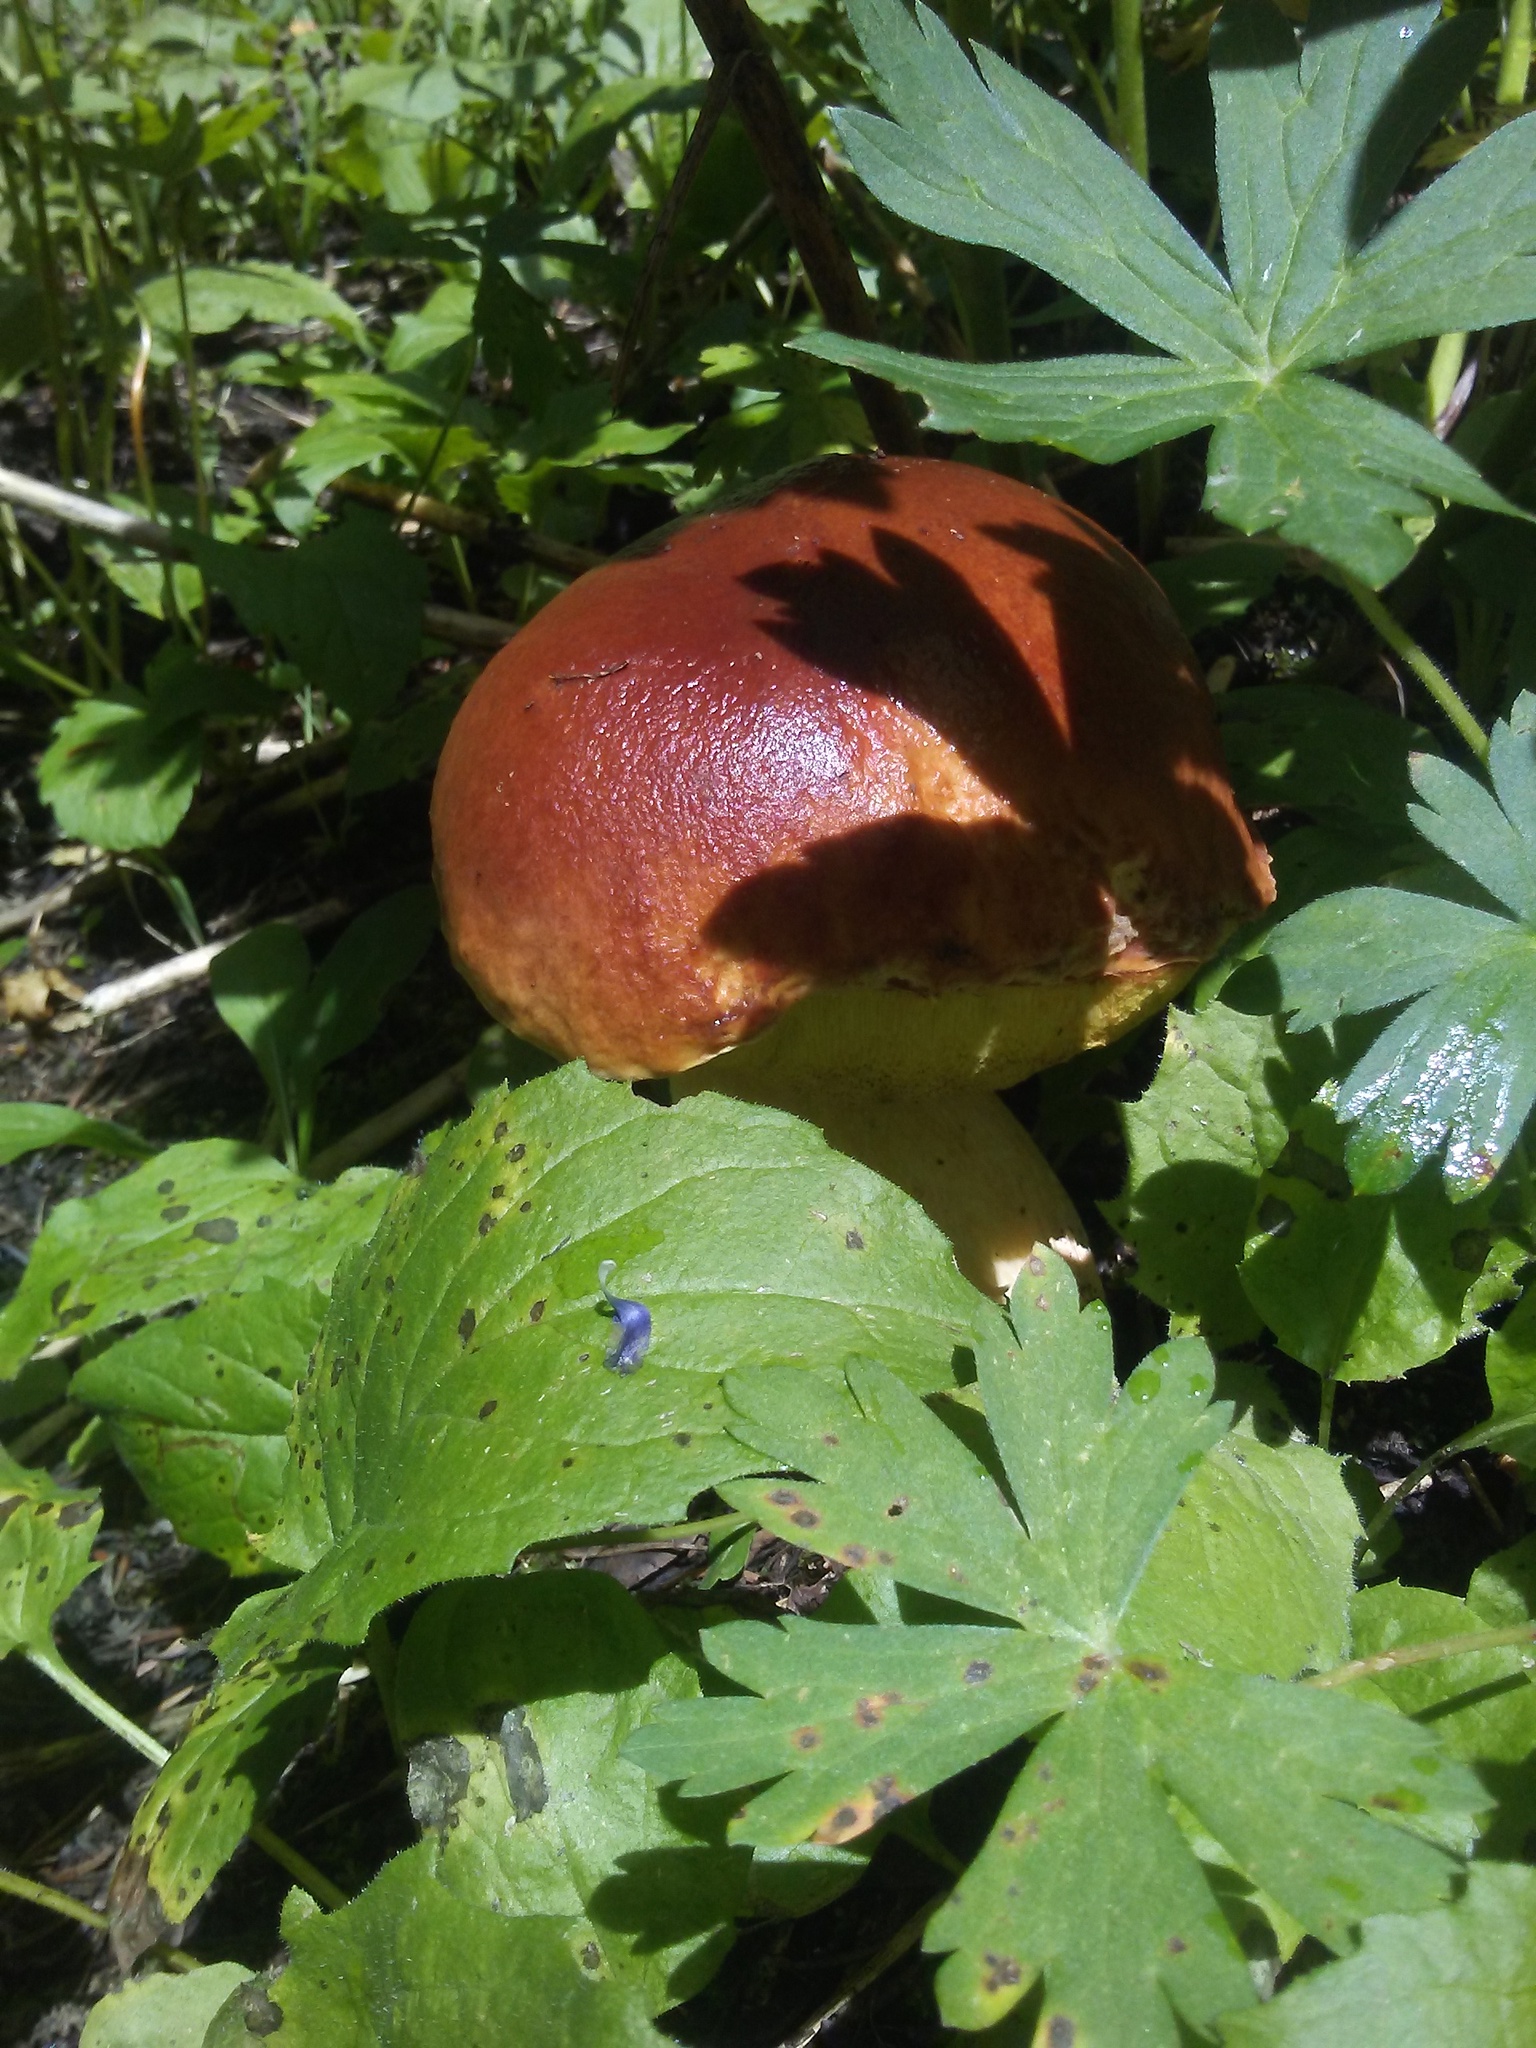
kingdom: Fungi
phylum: Basidiomycota
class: Agaricomycetes
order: Boletales
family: Boletaceae
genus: Boletus
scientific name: Boletus rubriceps
